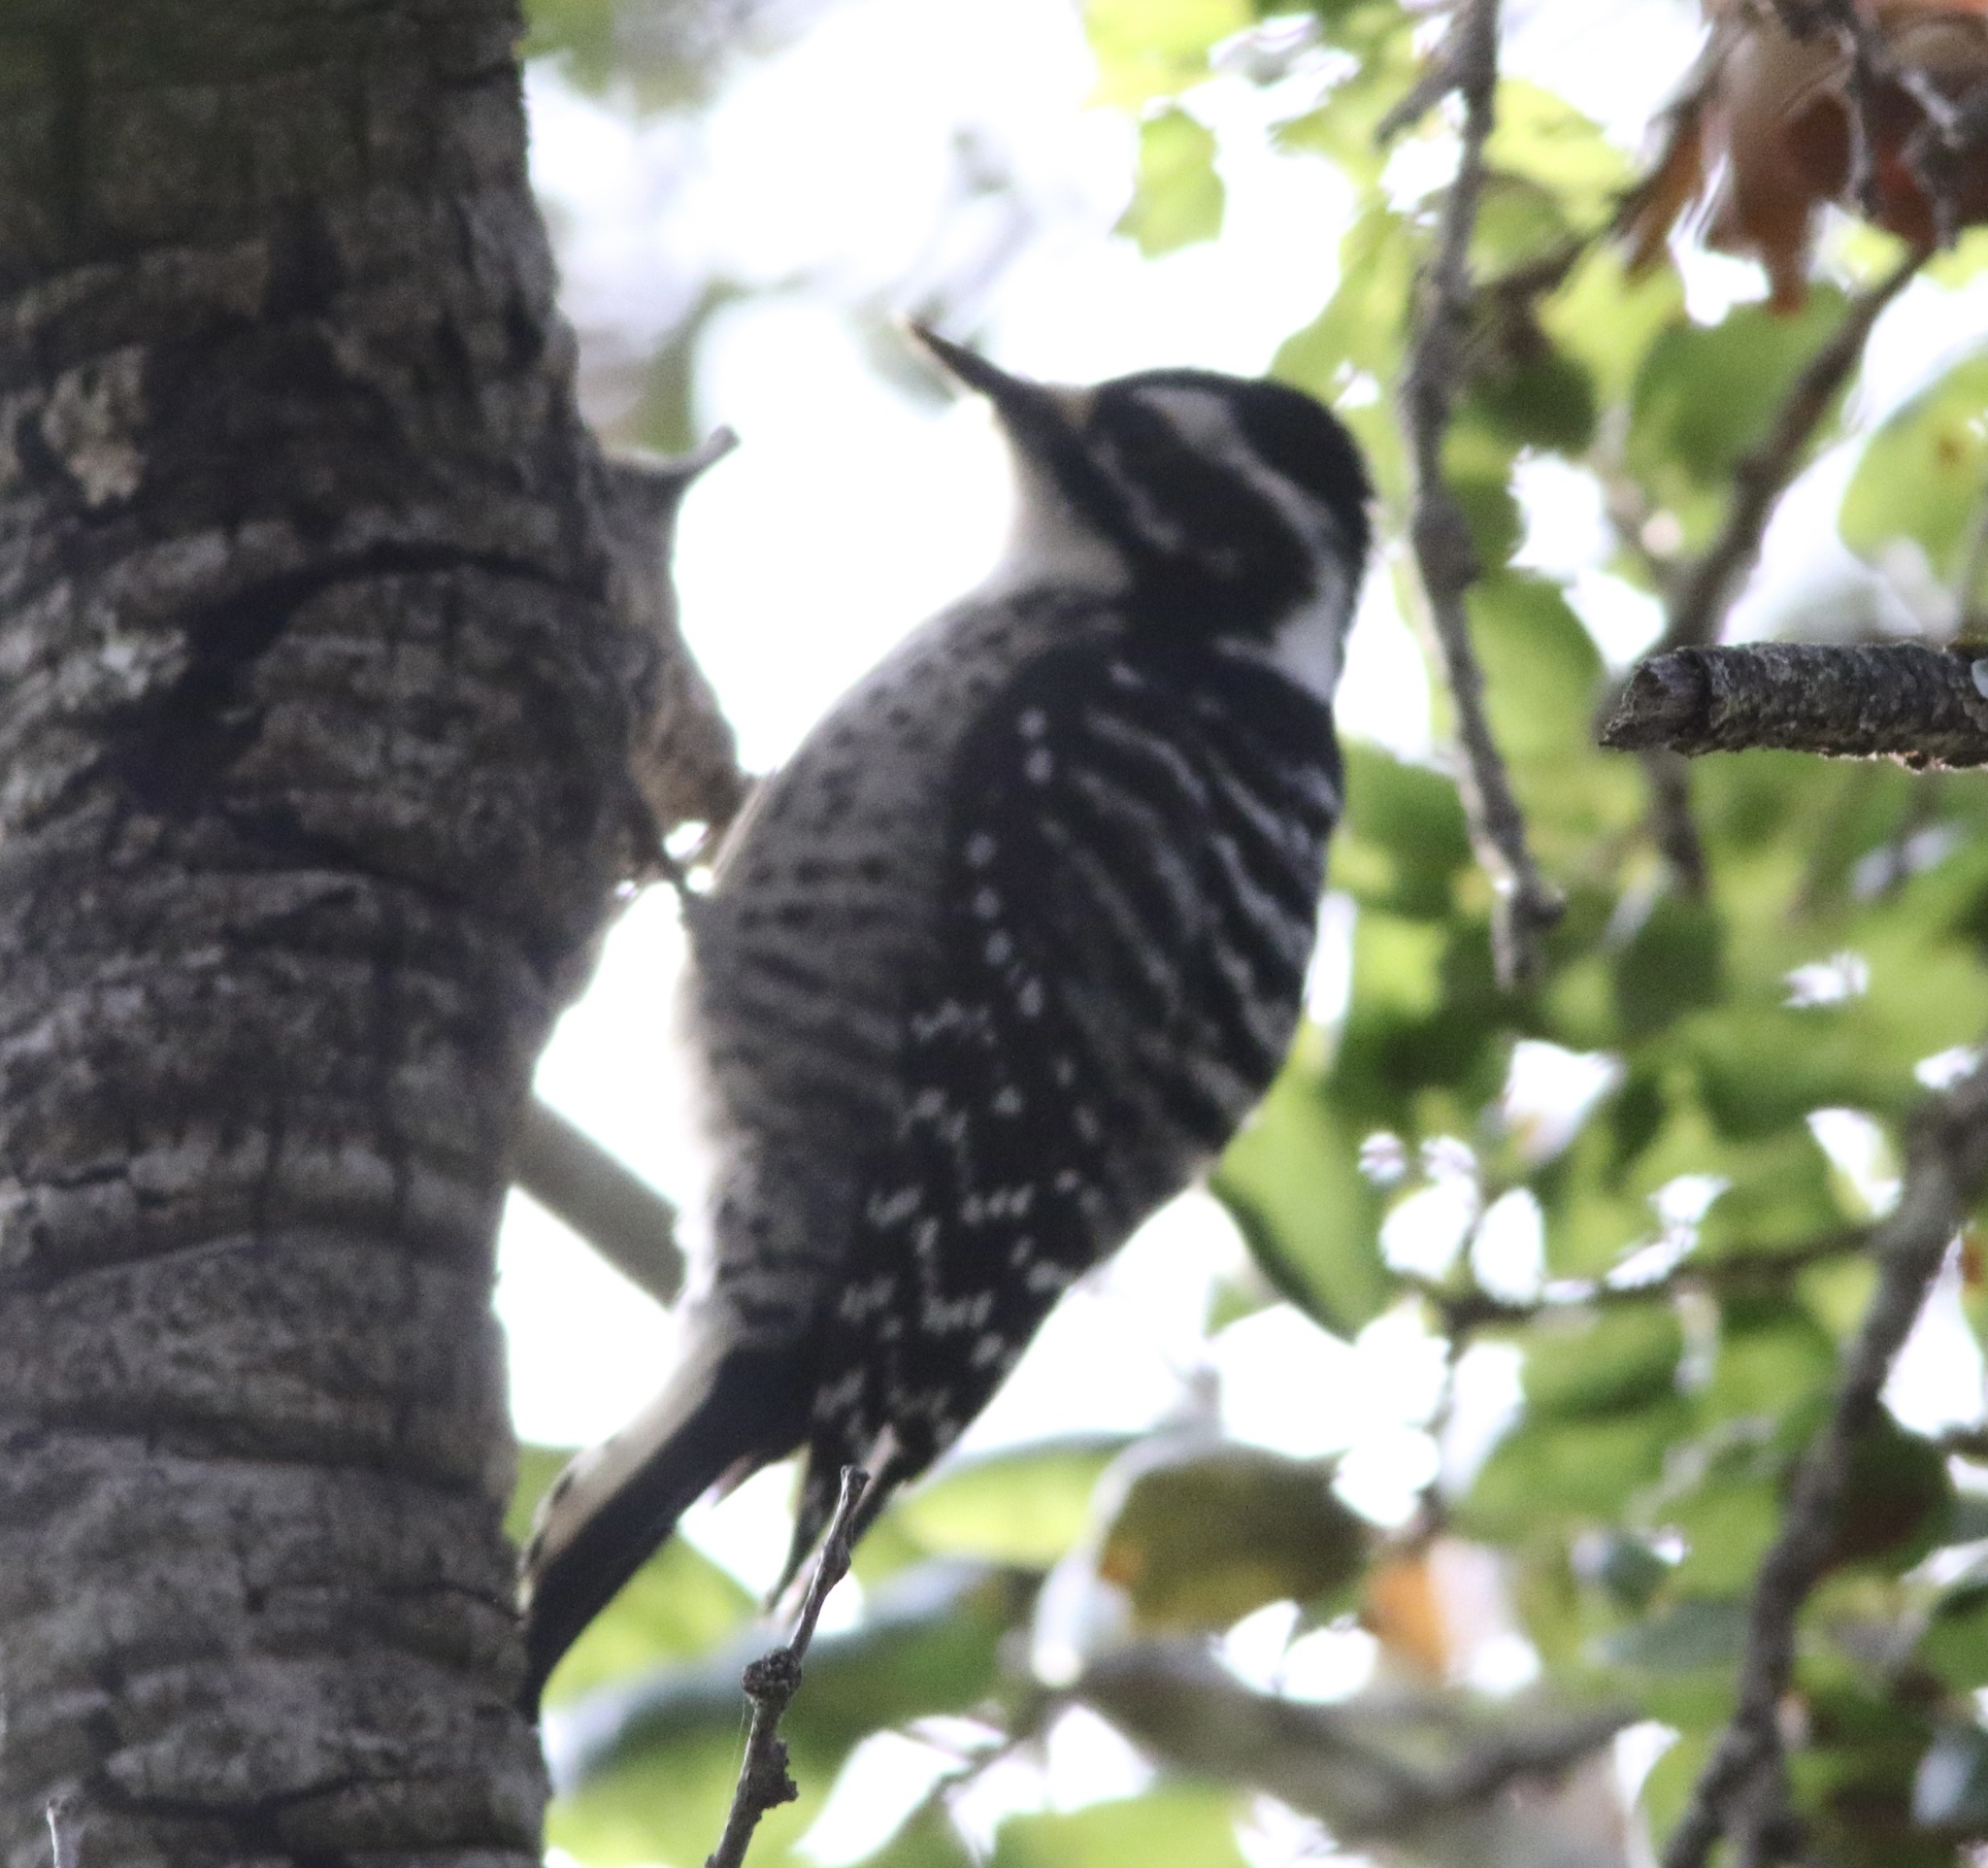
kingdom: Animalia
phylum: Chordata
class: Aves
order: Piciformes
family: Picidae
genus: Dryobates
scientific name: Dryobates nuttallii
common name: Nuttall's woodpecker
